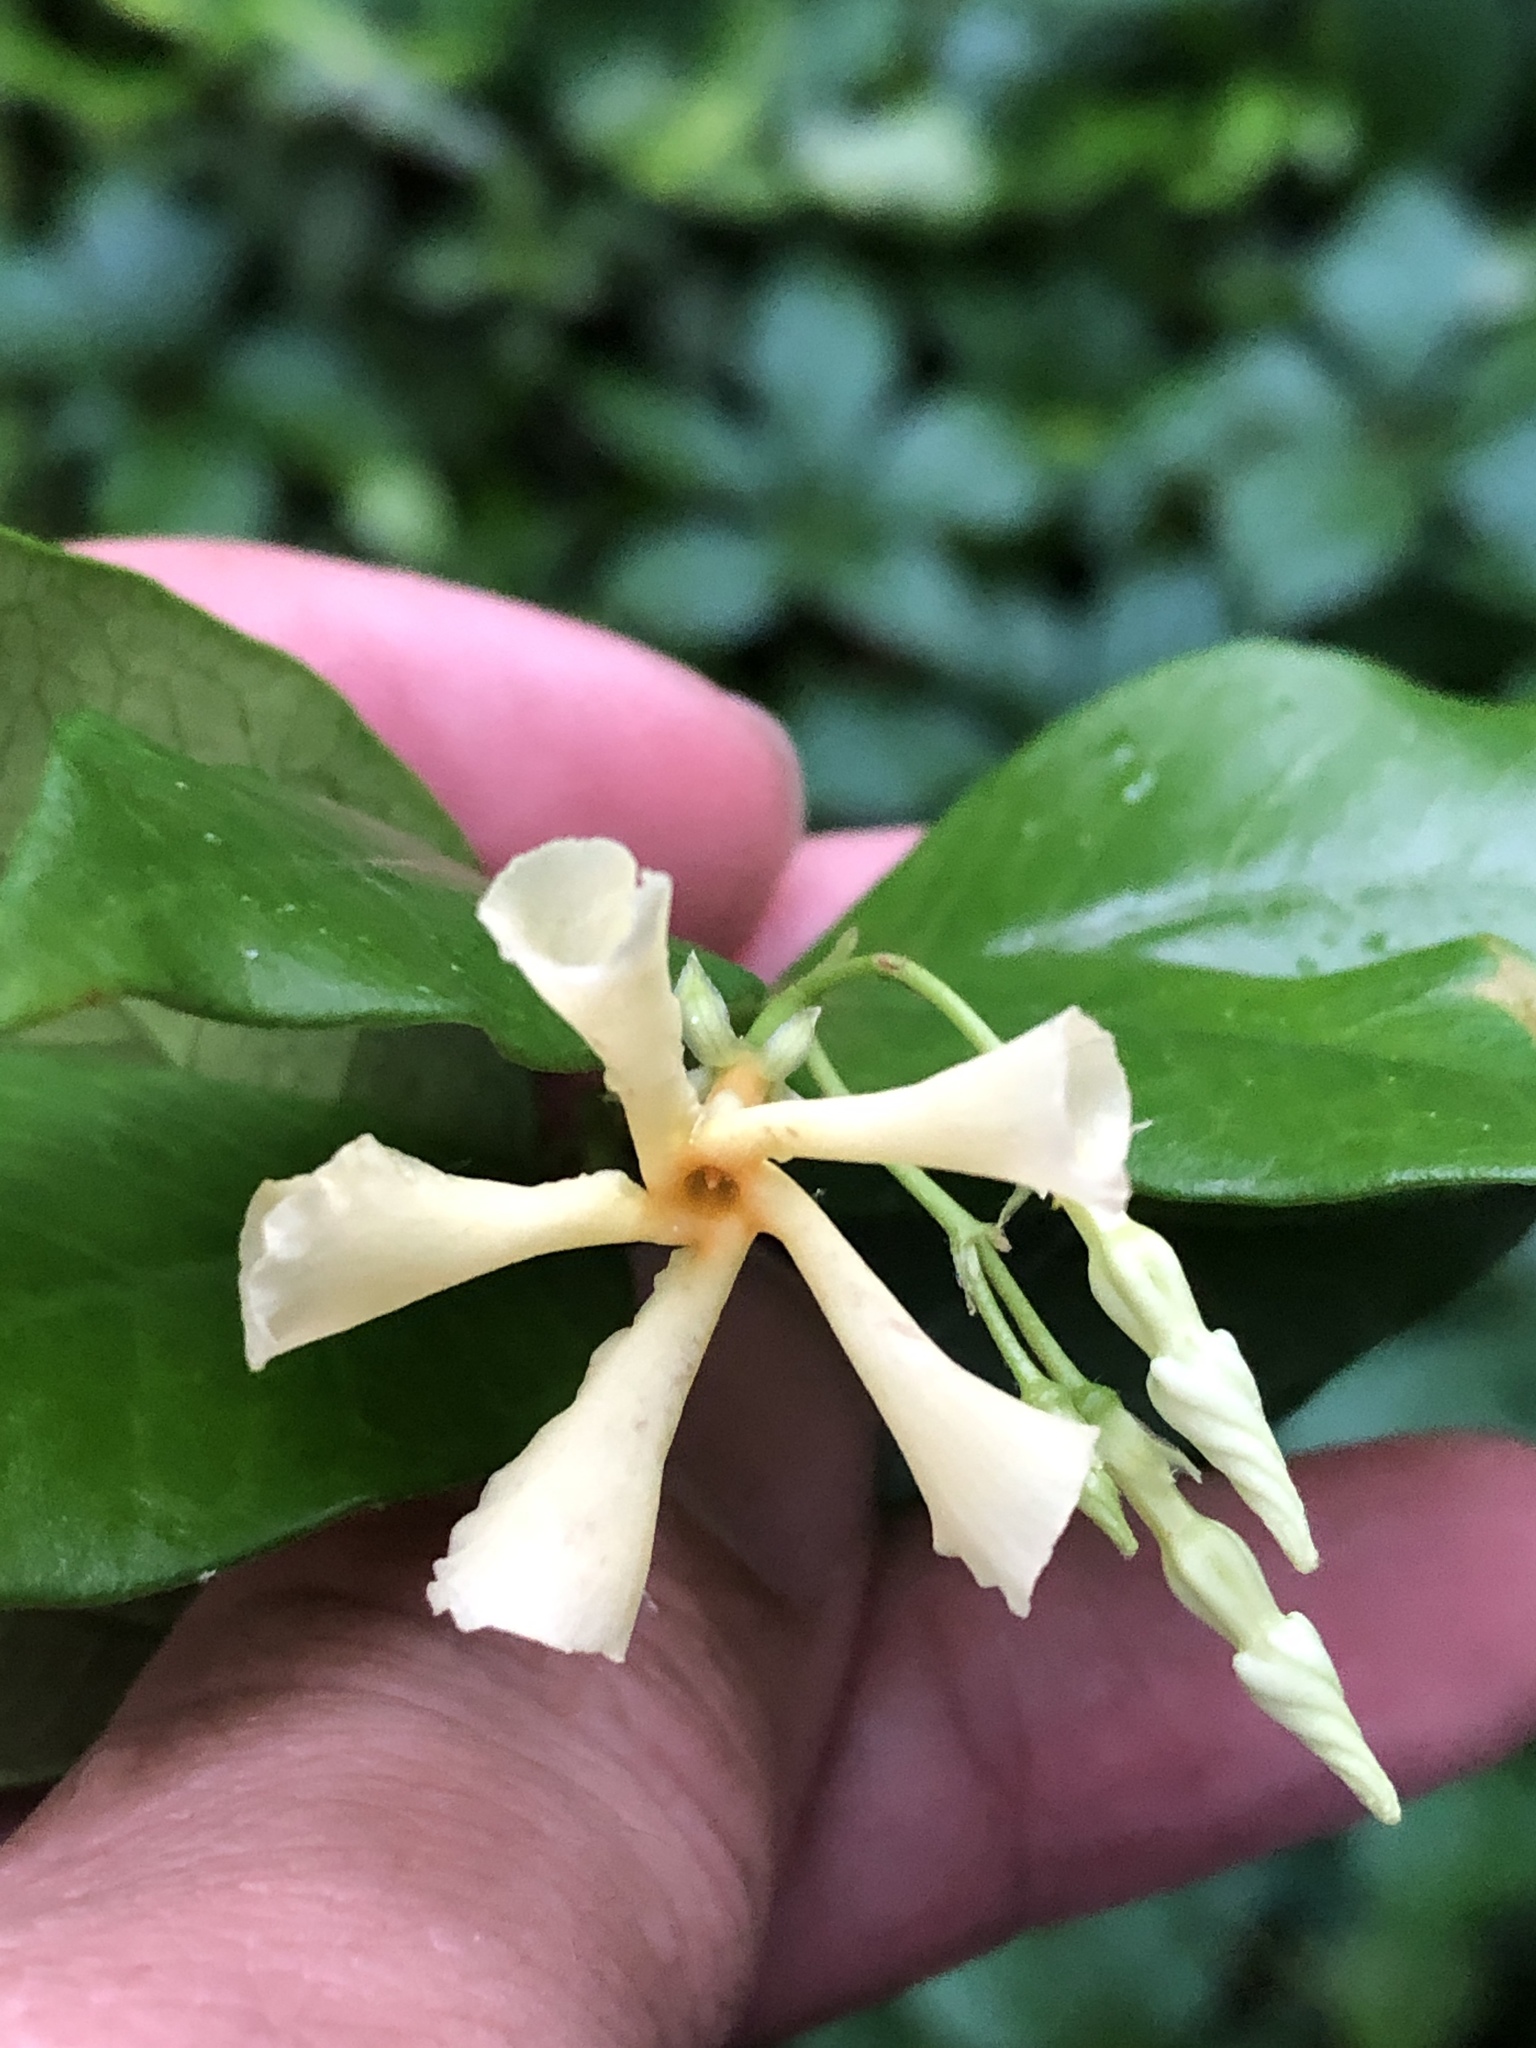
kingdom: Plantae
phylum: Tracheophyta
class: Magnoliopsida
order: Gentianales
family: Apocynaceae
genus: Trachelospermum
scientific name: Trachelospermum asiaticum
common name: Asiatic jasmine
